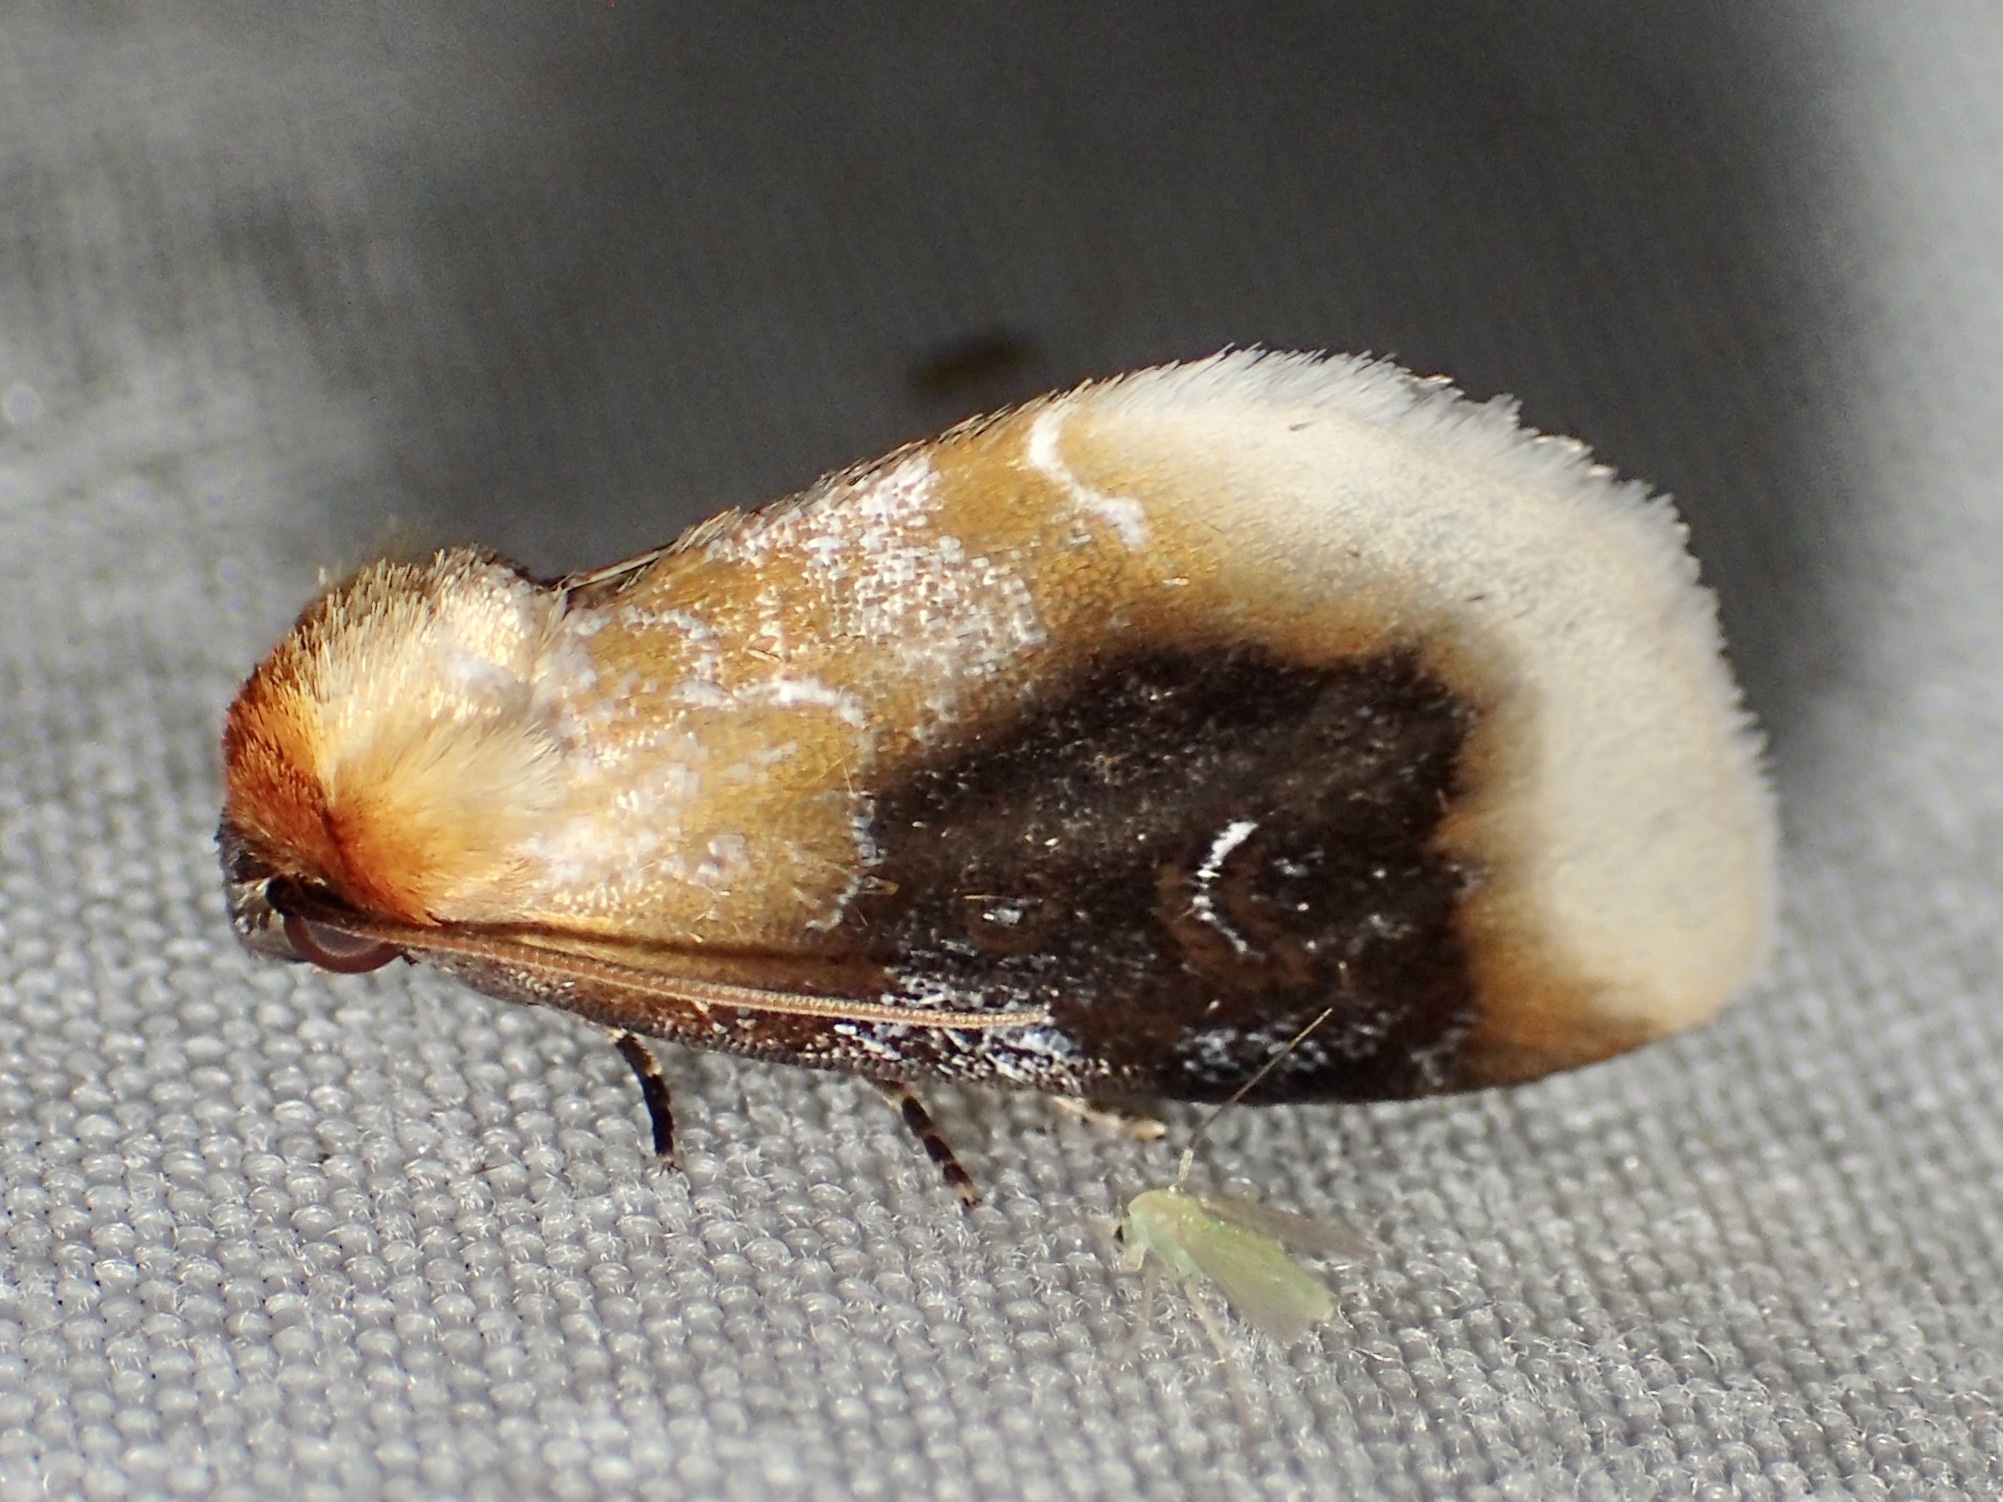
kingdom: Animalia
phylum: Arthropoda
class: Insecta
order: Lepidoptera
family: Noctuidae
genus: Chrysoecia
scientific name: Chrysoecia scira
